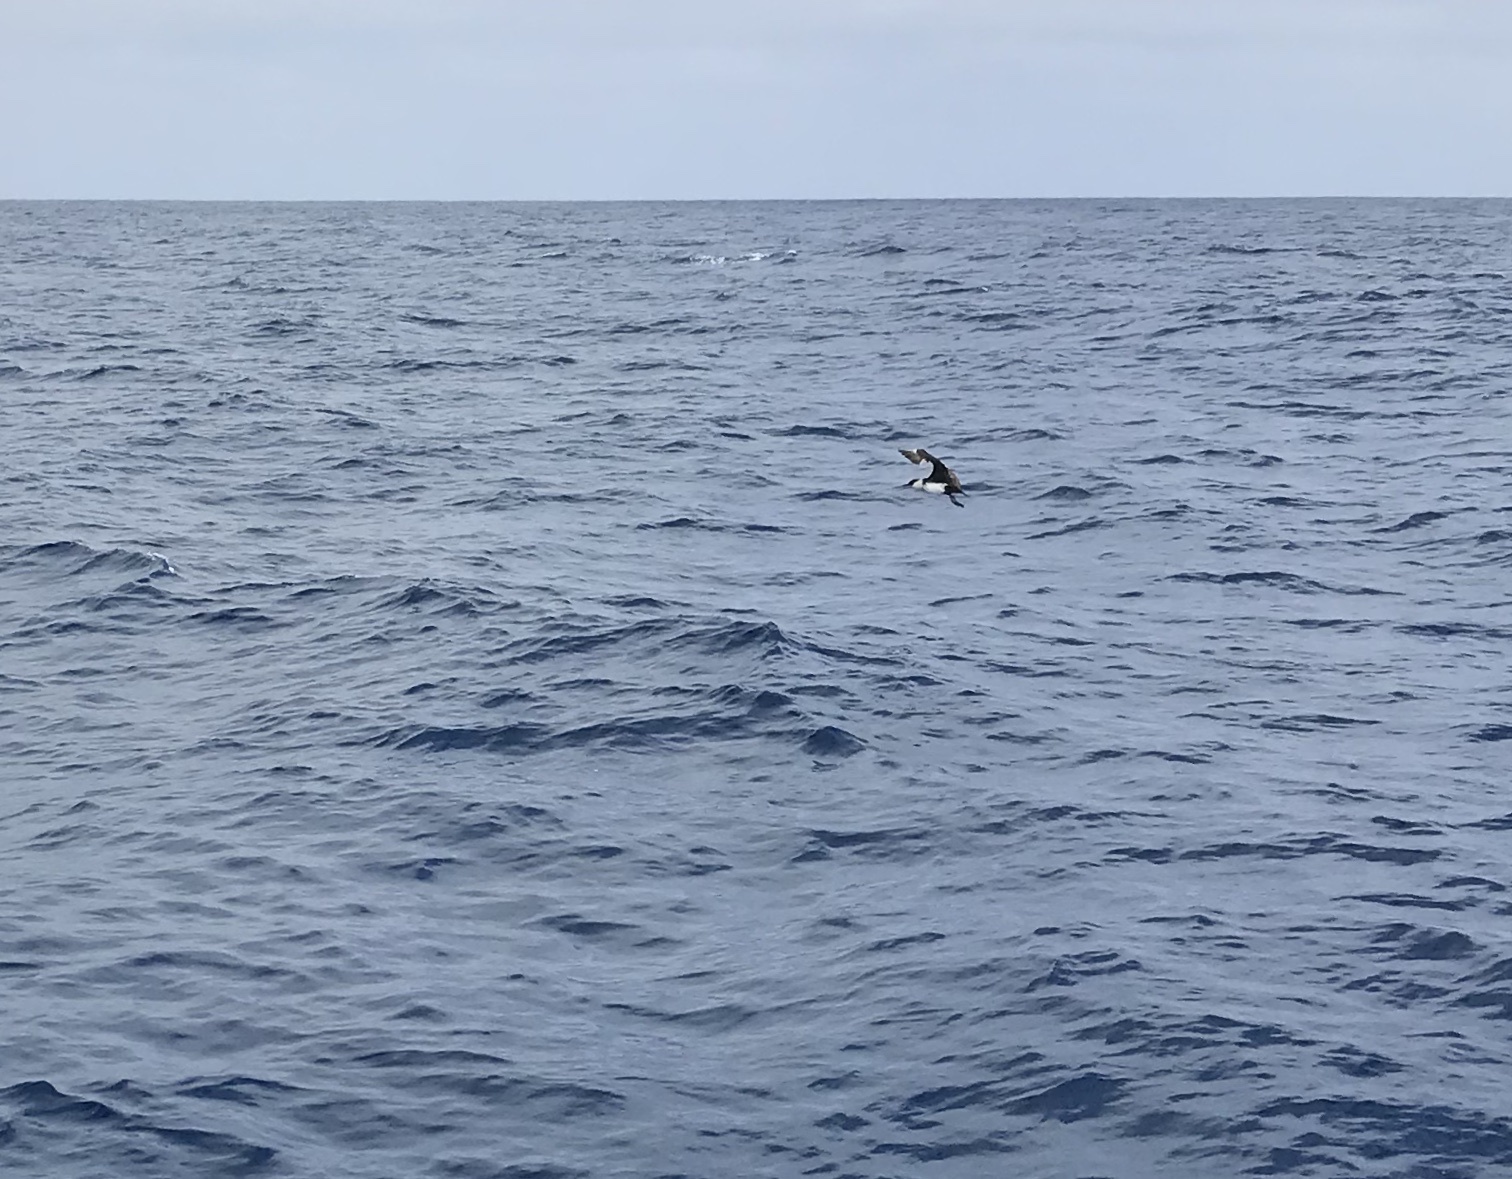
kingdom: Animalia
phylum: Chordata
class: Aves
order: Charadriiformes
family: Stercorariidae
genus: Stercorarius
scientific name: Stercorarius parasiticus
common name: Parasitic jaeger
